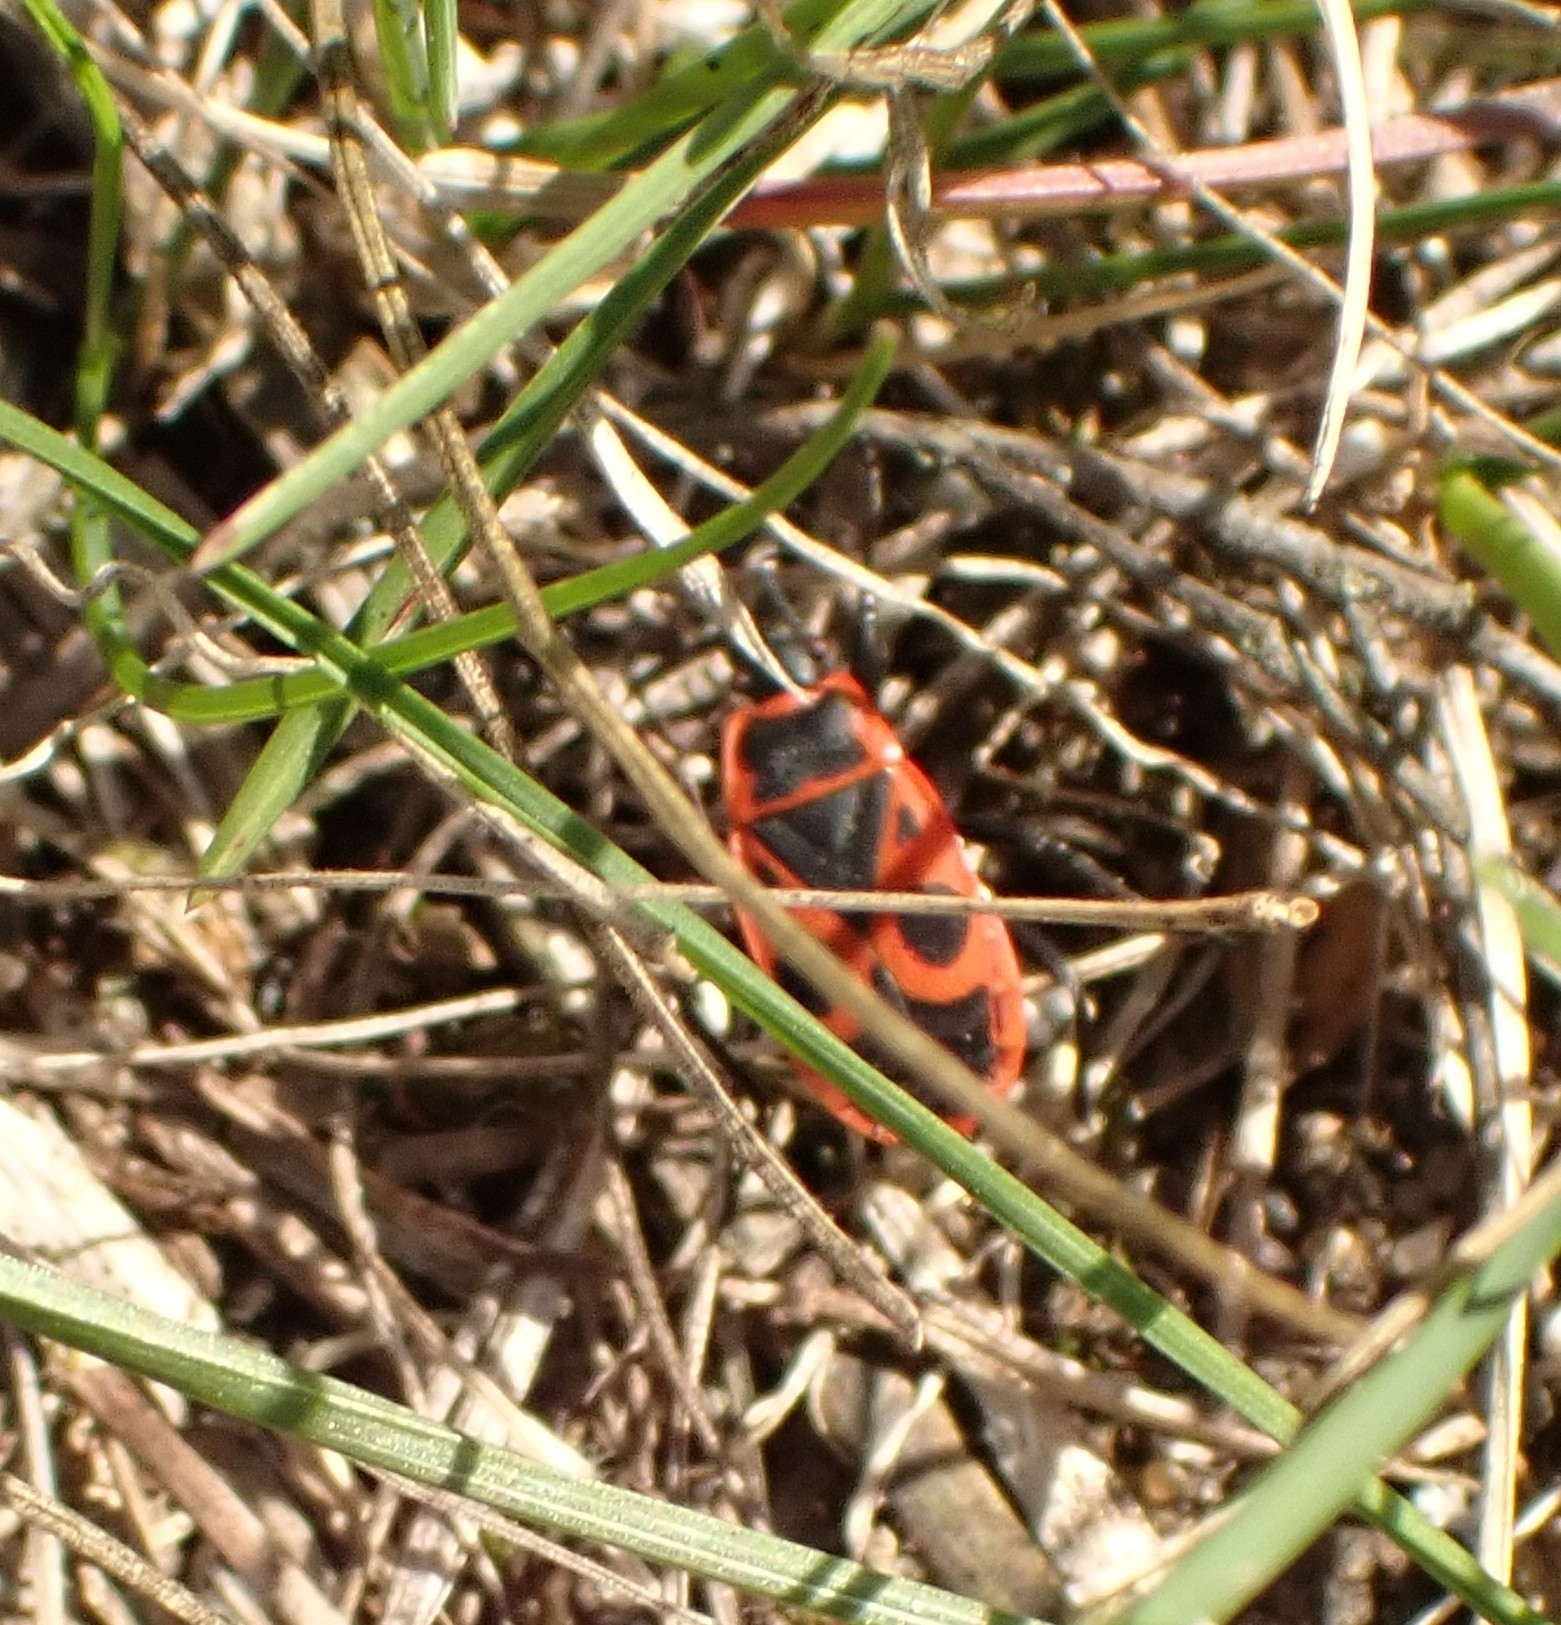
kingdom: Animalia
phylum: Arthropoda
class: Insecta
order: Hemiptera
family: Pyrrhocoridae
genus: Pyrrhocoris
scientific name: Pyrrhocoris apterus
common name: Firebug
